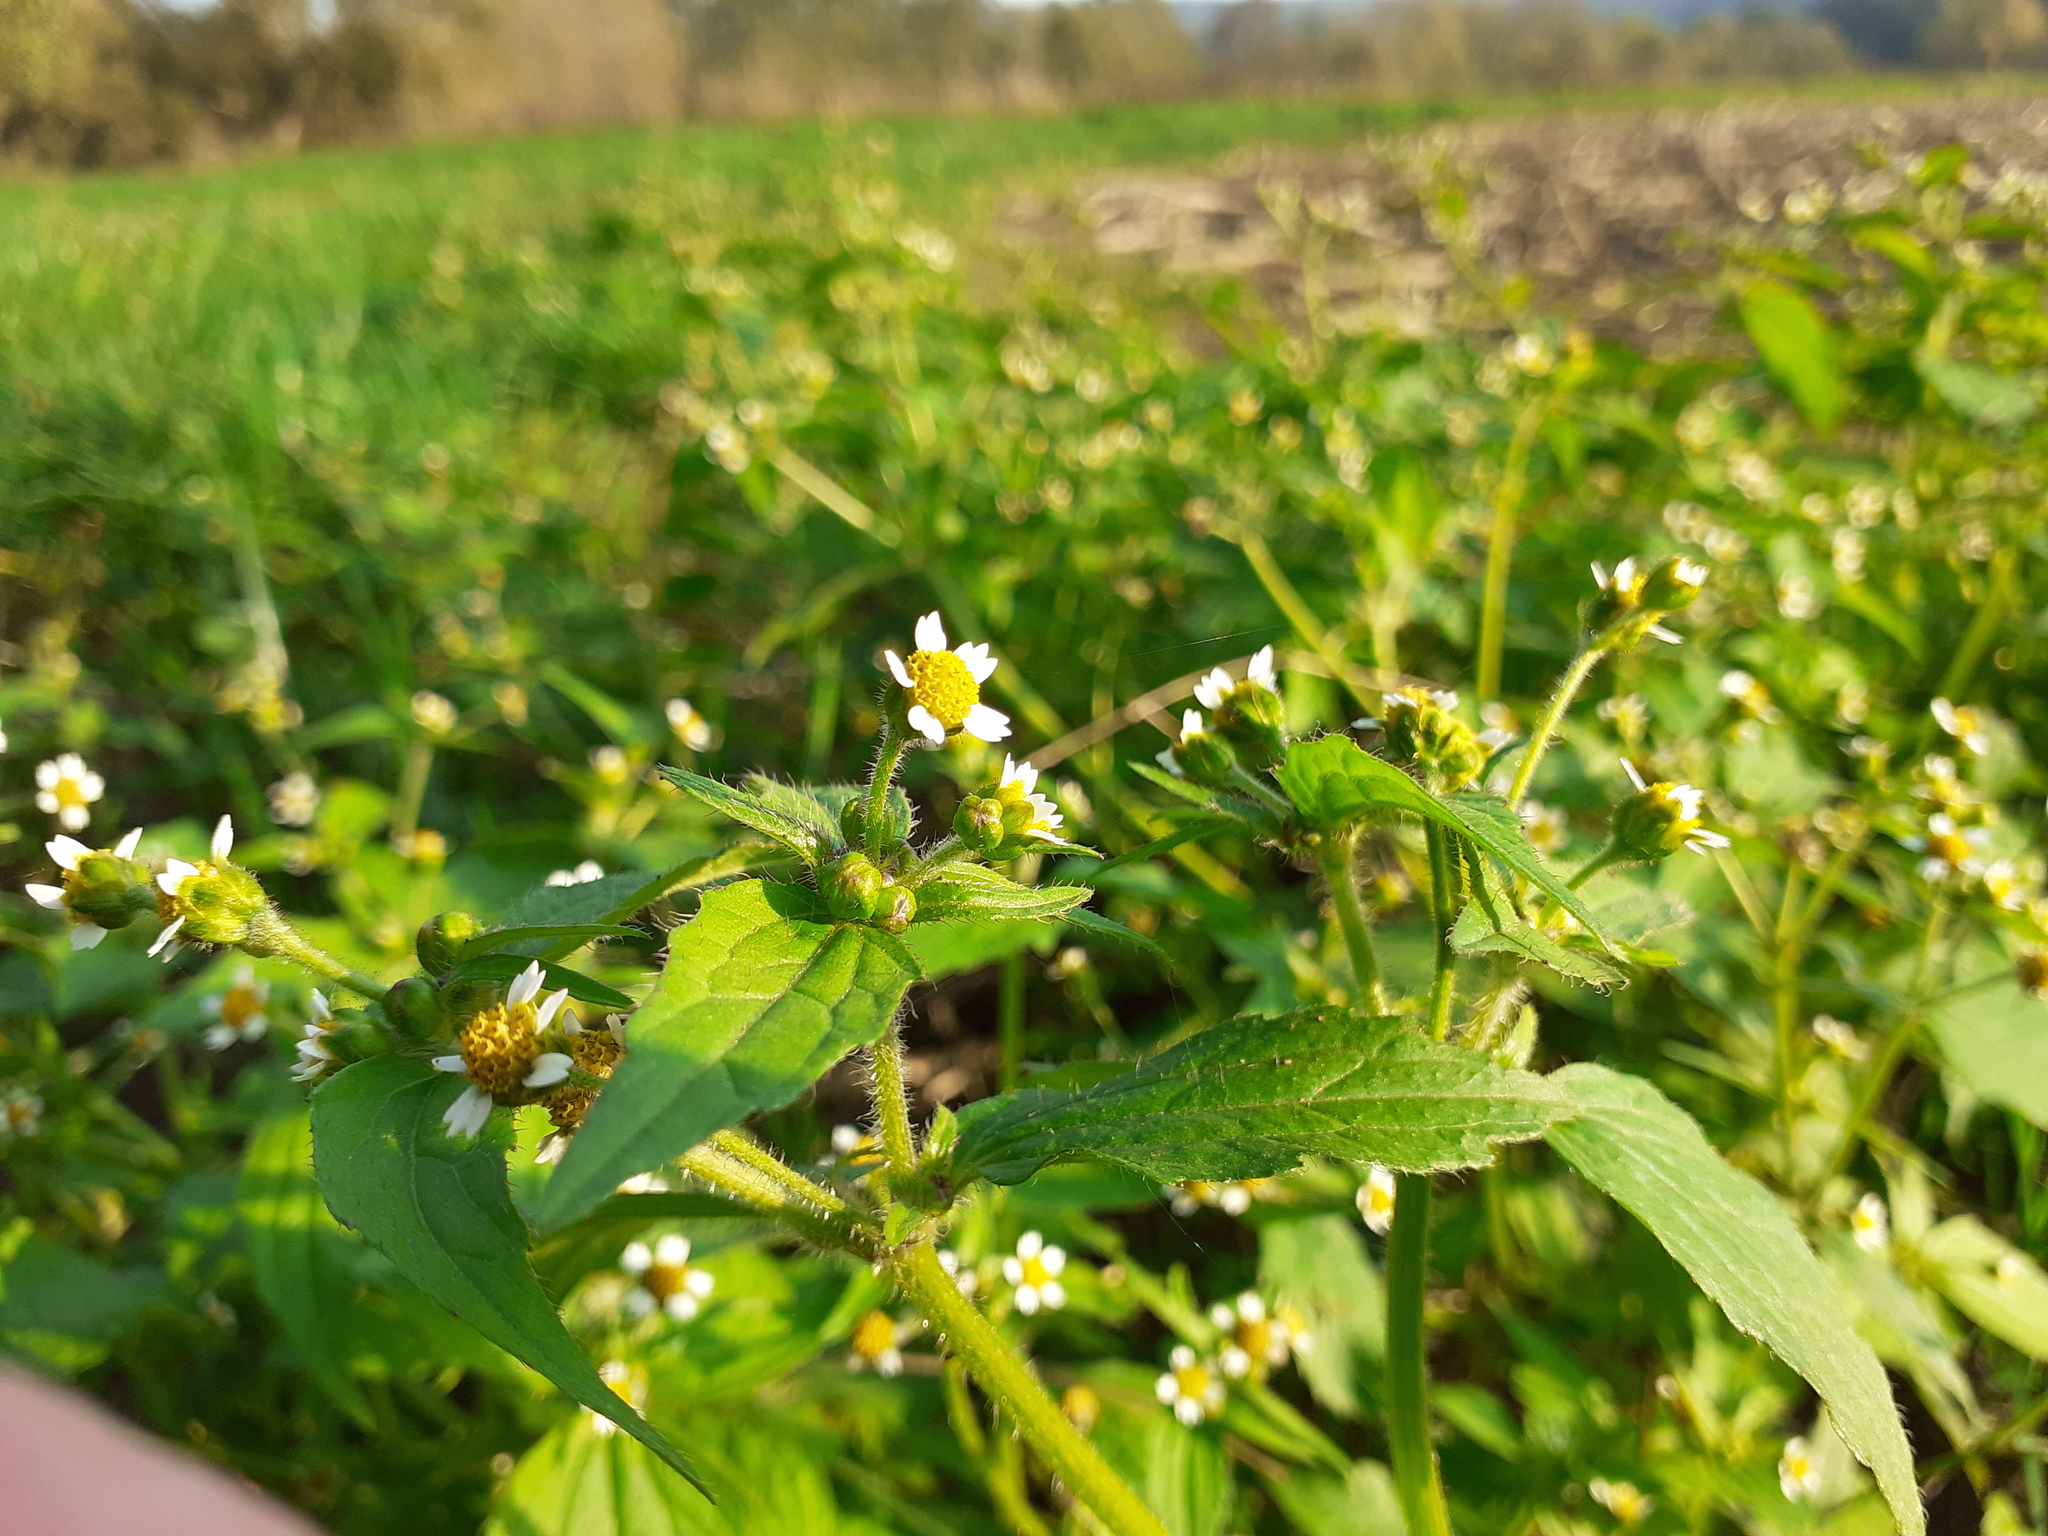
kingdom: Plantae
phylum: Tracheophyta
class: Magnoliopsida
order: Asterales
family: Asteraceae
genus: Galinsoga
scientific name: Galinsoga quadriradiata
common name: Shaggy soldier
